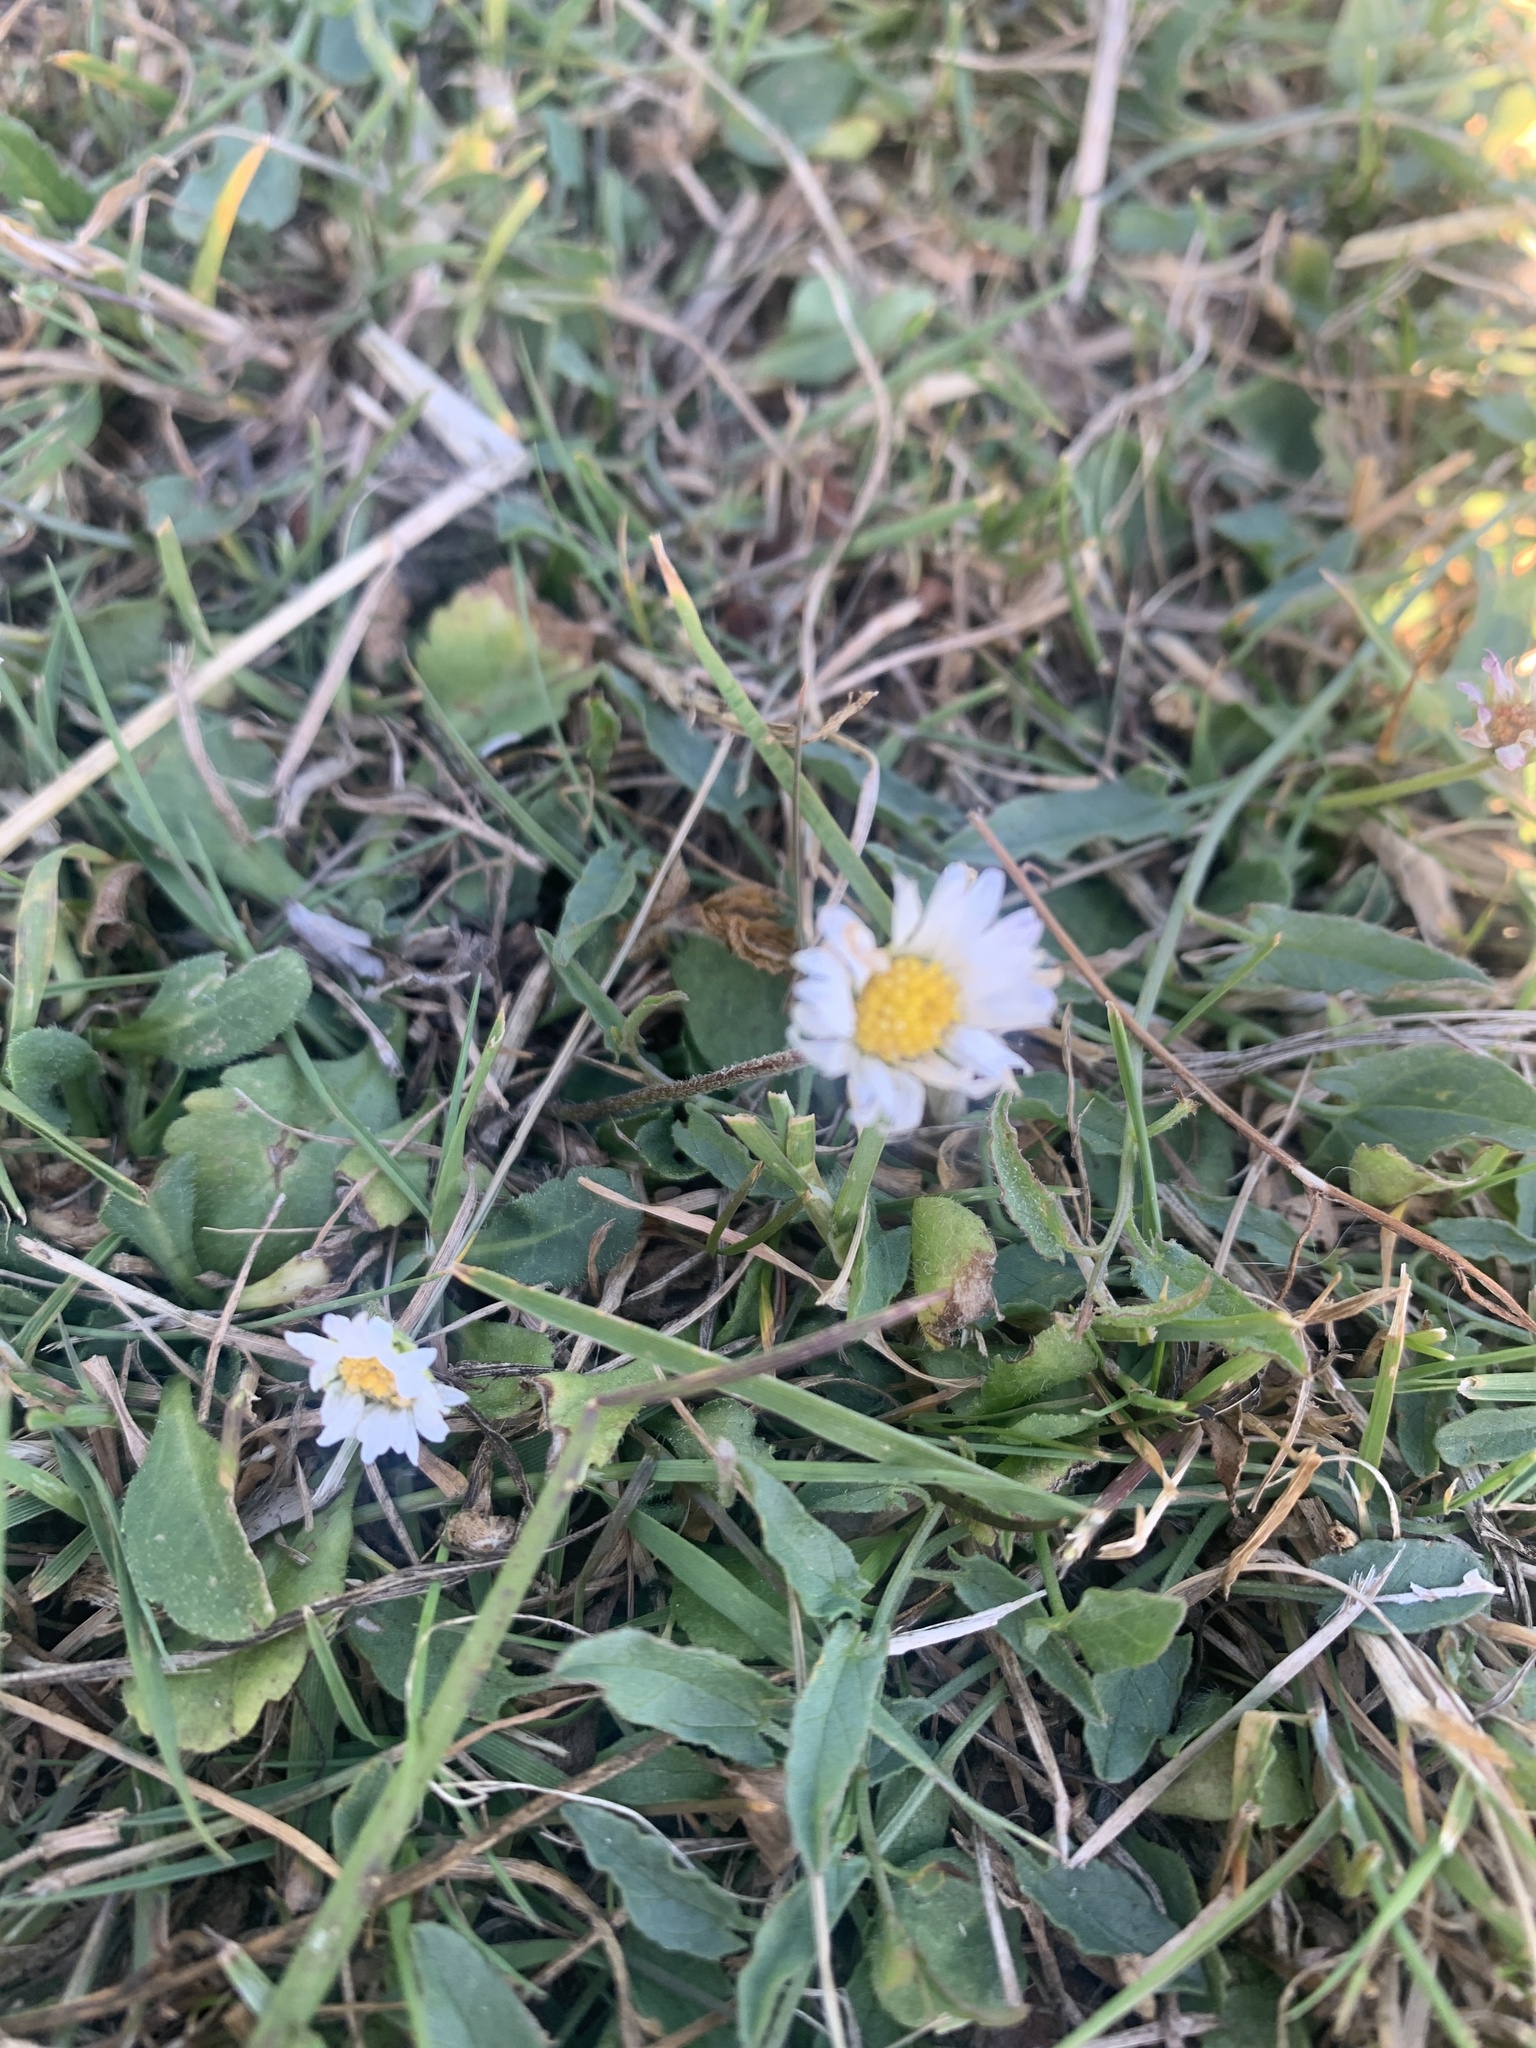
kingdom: Plantae
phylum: Tracheophyta
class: Magnoliopsida
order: Asterales
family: Asteraceae
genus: Bellis
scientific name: Bellis perennis
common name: Lawndaisy
